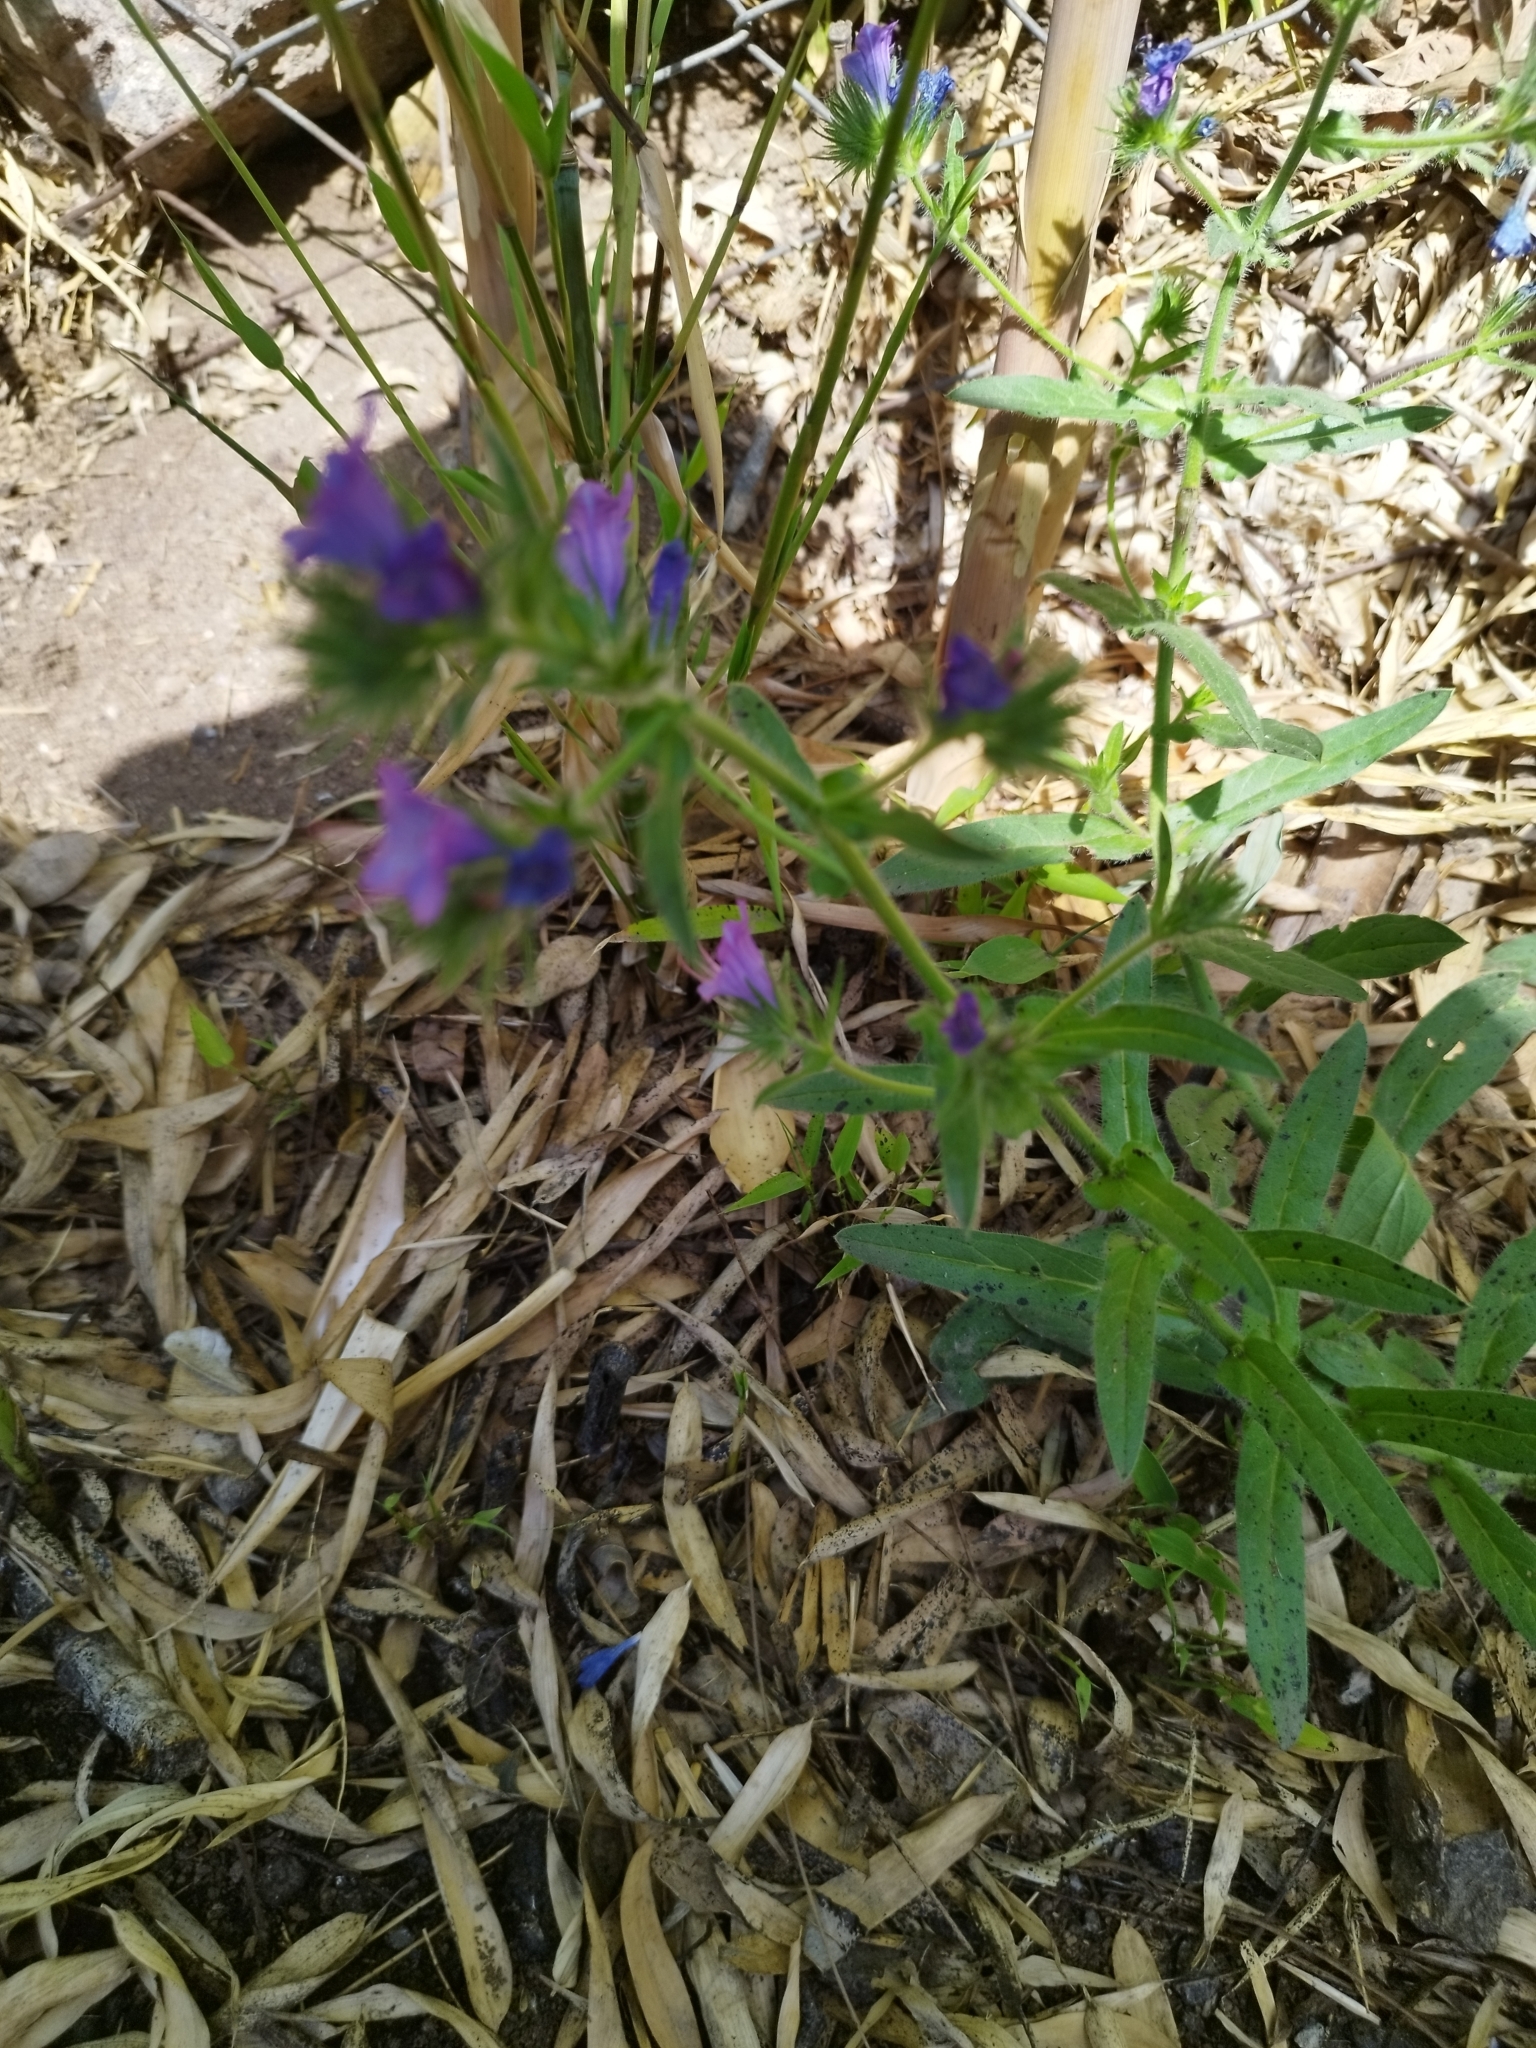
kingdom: Plantae
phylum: Tracheophyta
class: Magnoliopsida
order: Boraginales
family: Boraginaceae
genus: Echium
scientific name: Echium plantagineum
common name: Purple viper's-bugloss
